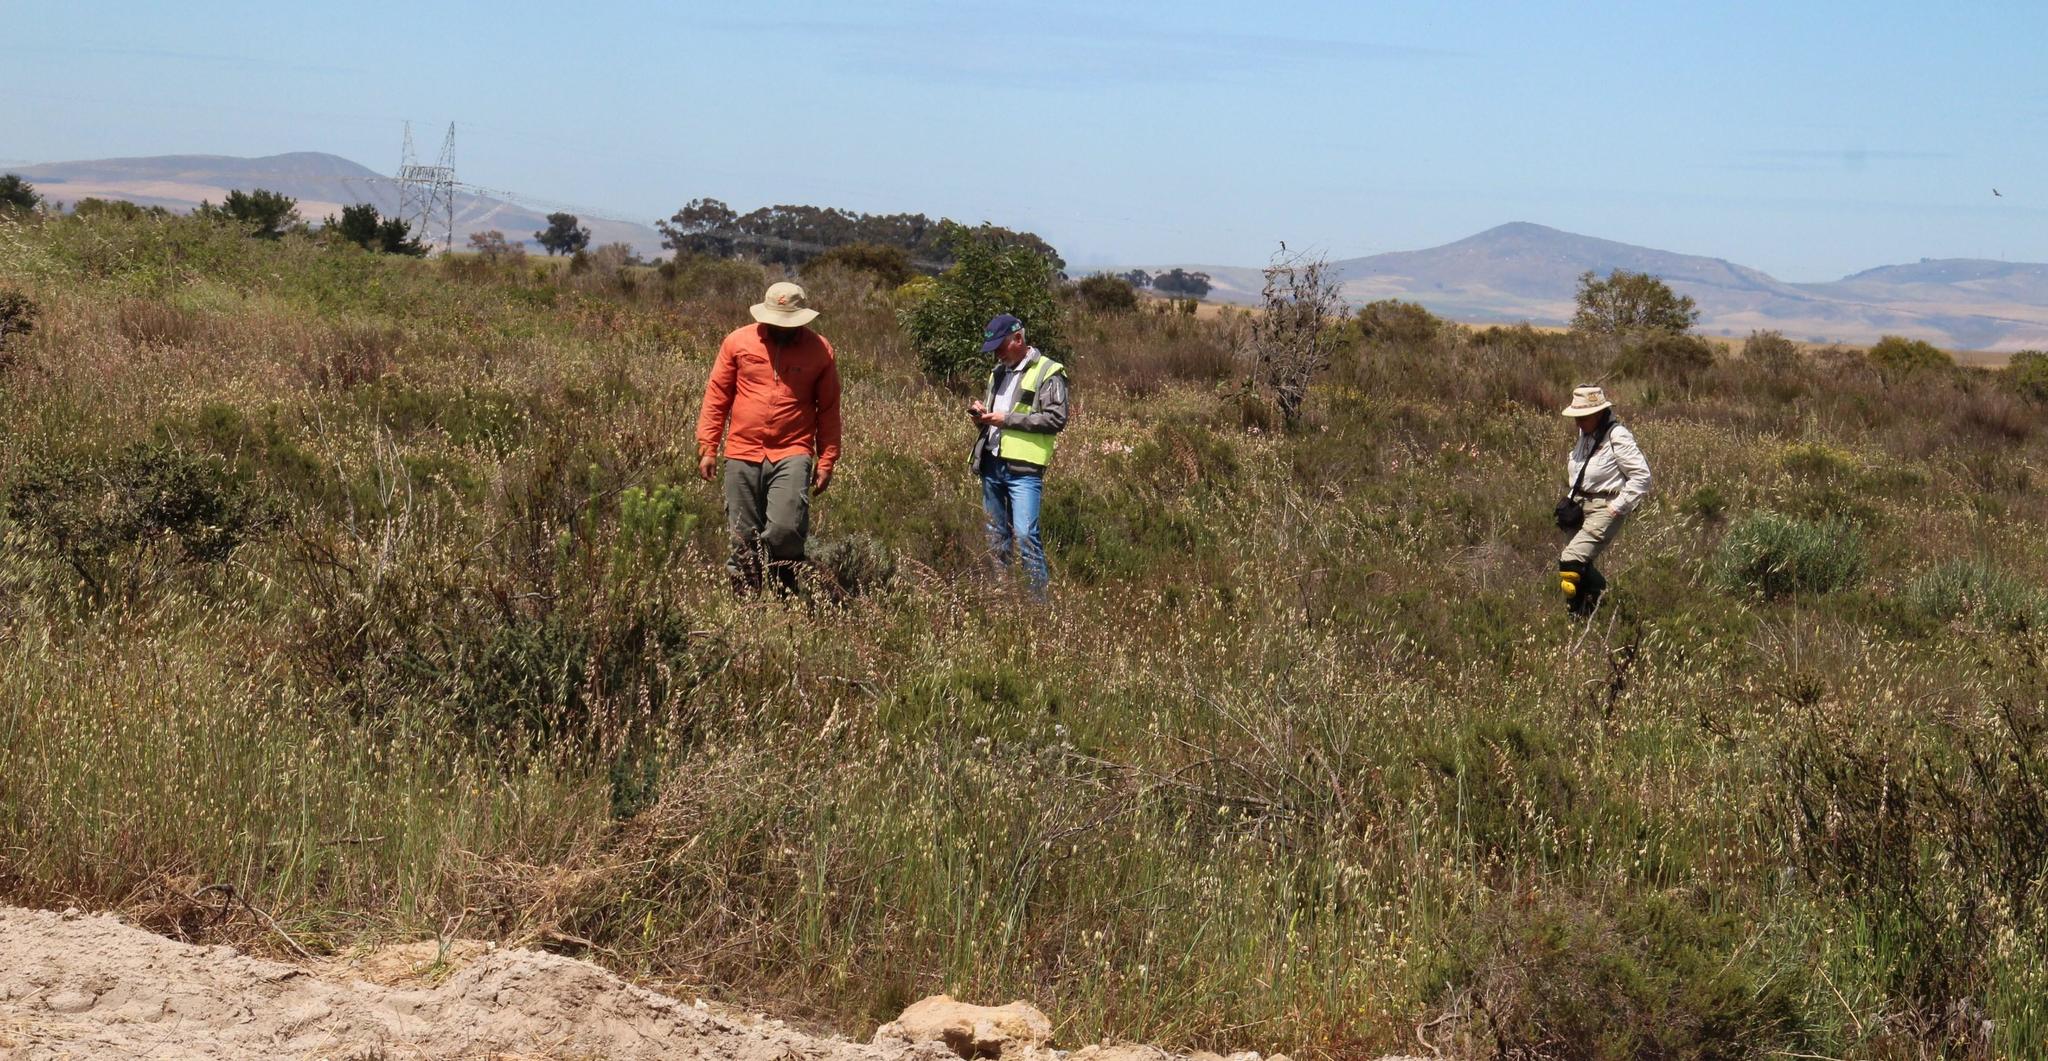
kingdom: Plantae
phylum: Tracheophyta
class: Liliopsida
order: Poales
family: Poaceae
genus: Briza
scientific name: Briza maxima
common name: Big quakinggrass
